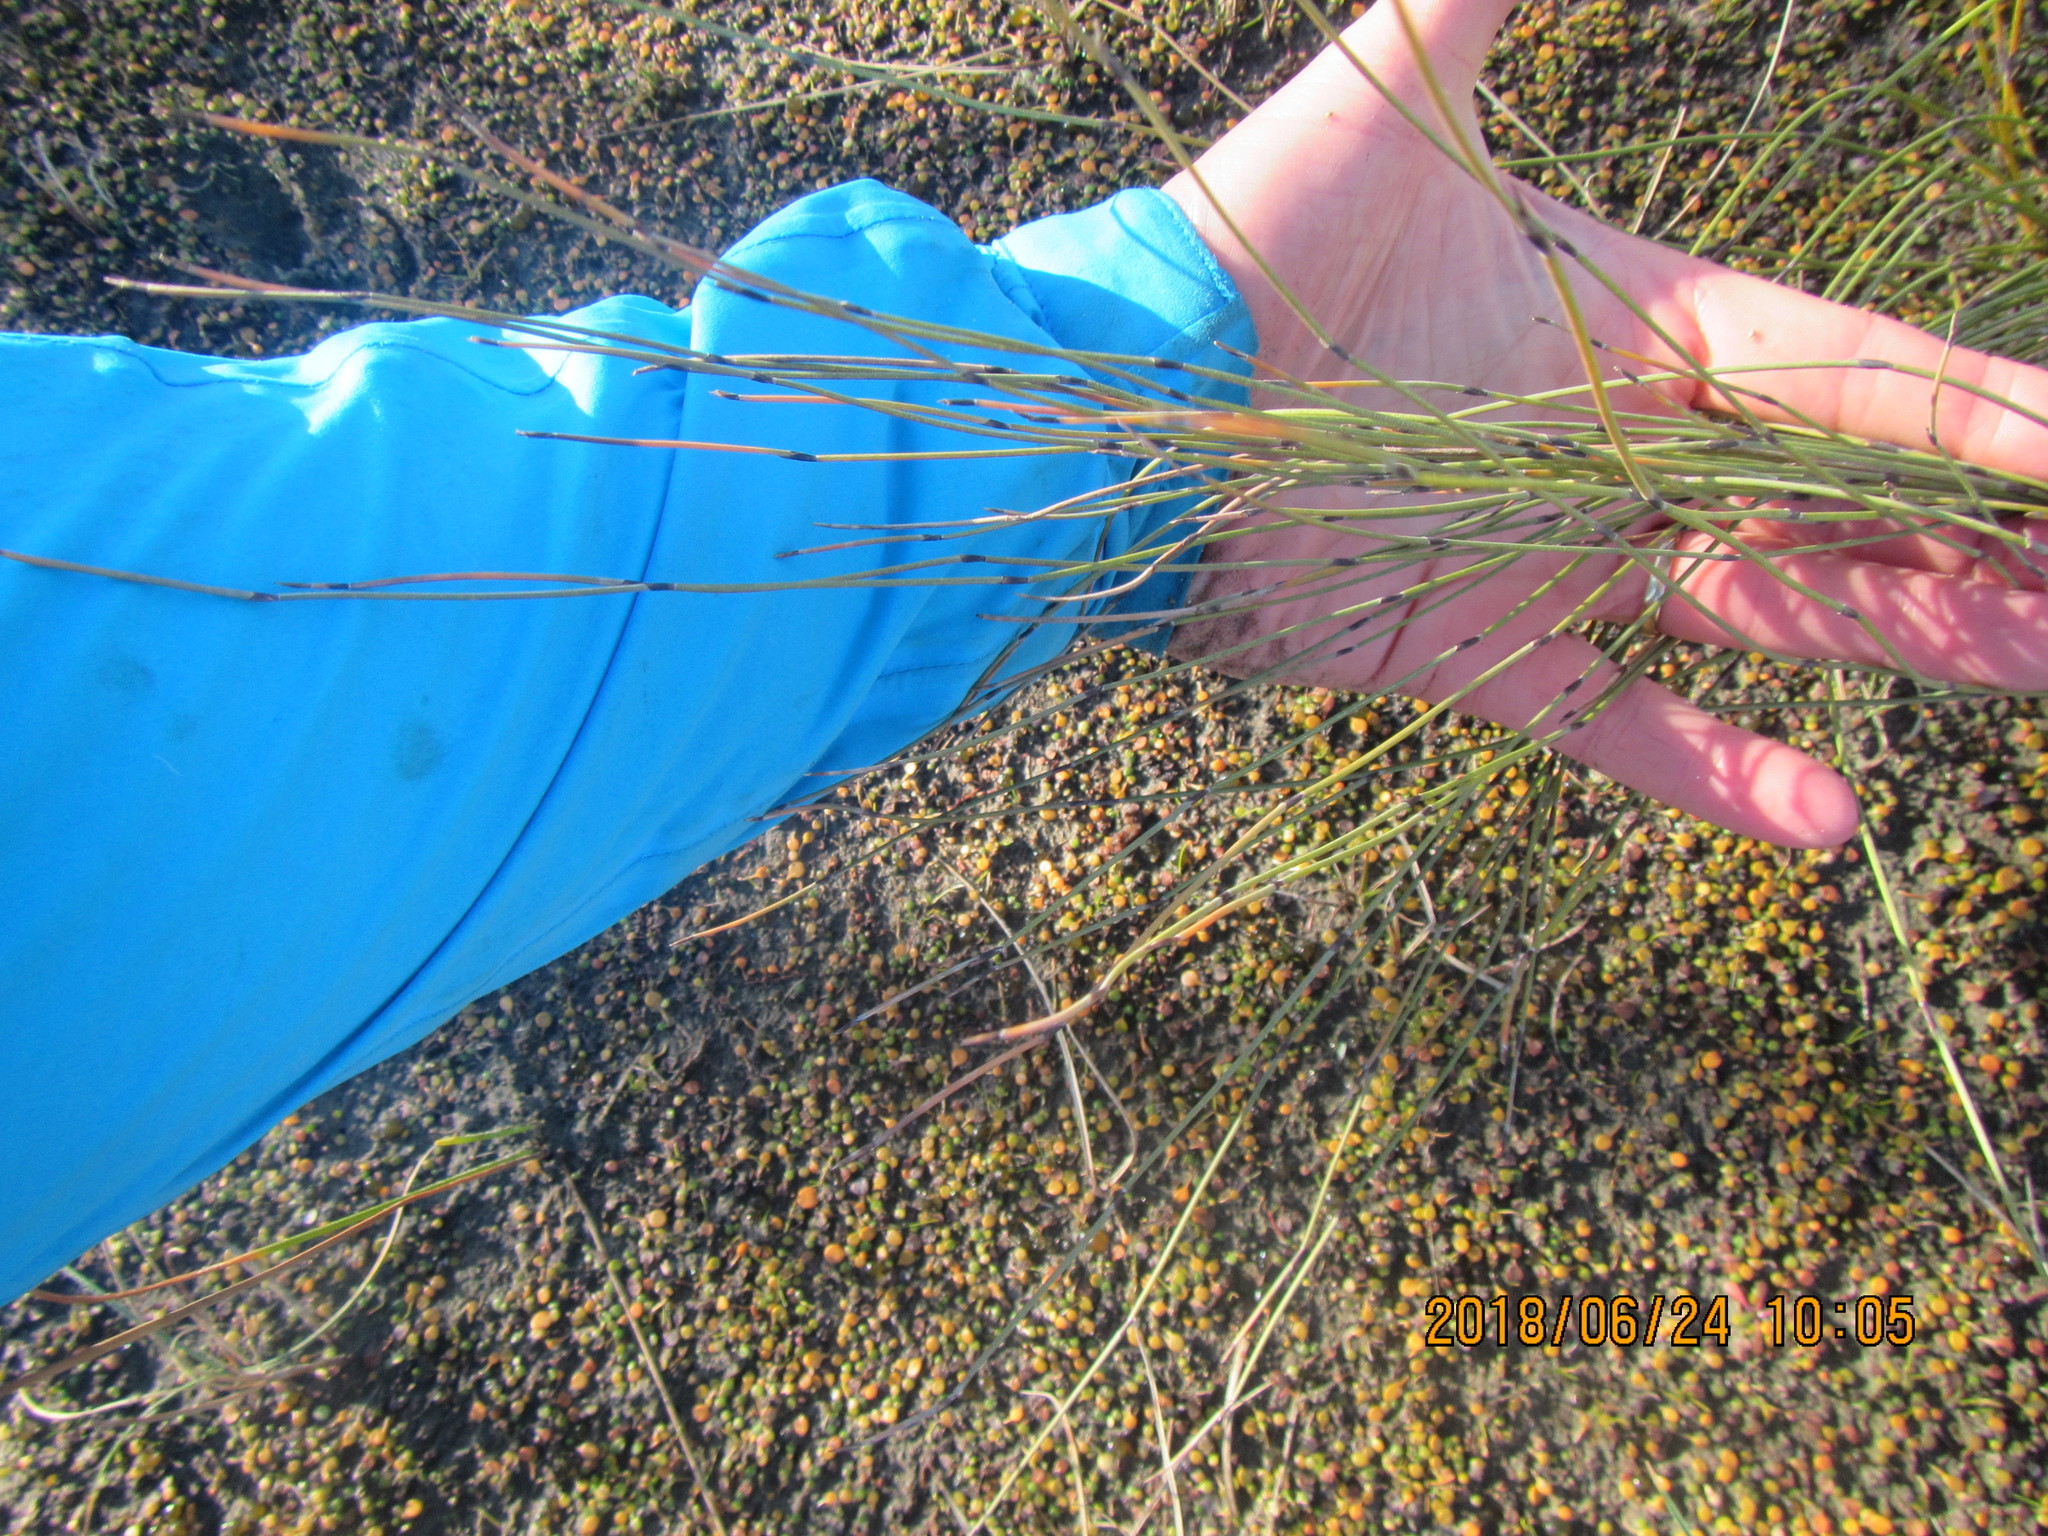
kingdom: Plantae
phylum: Tracheophyta
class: Liliopsida
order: Poales
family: Restionaceae
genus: Apodasmia
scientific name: Apodasmia similis
